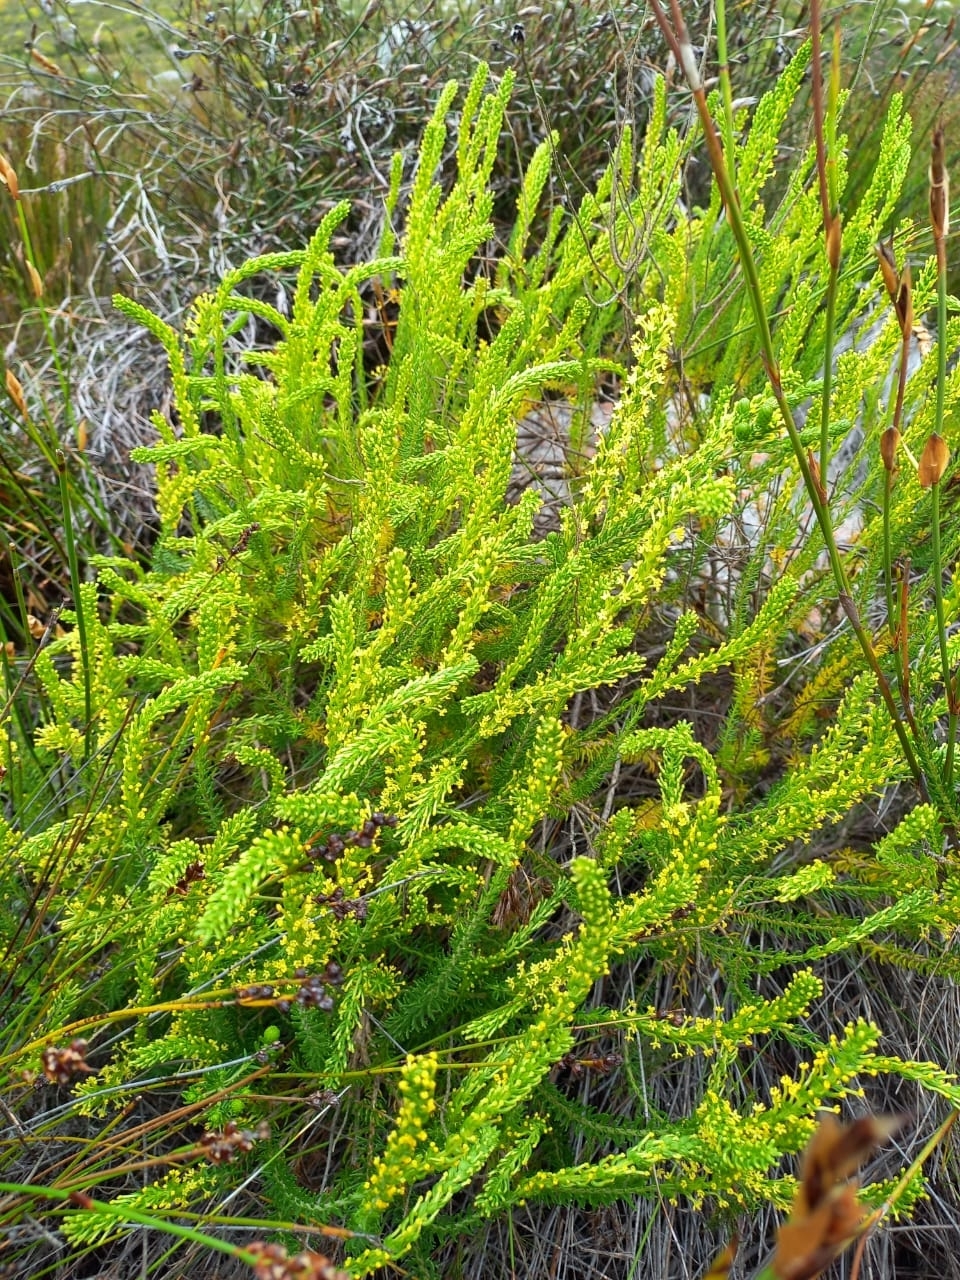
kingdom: Plantae
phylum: Tracheophyta
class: Magnoliopsida
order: Lamiales
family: Scrophulariaceae
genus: Microdon
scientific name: Microdon dubius
